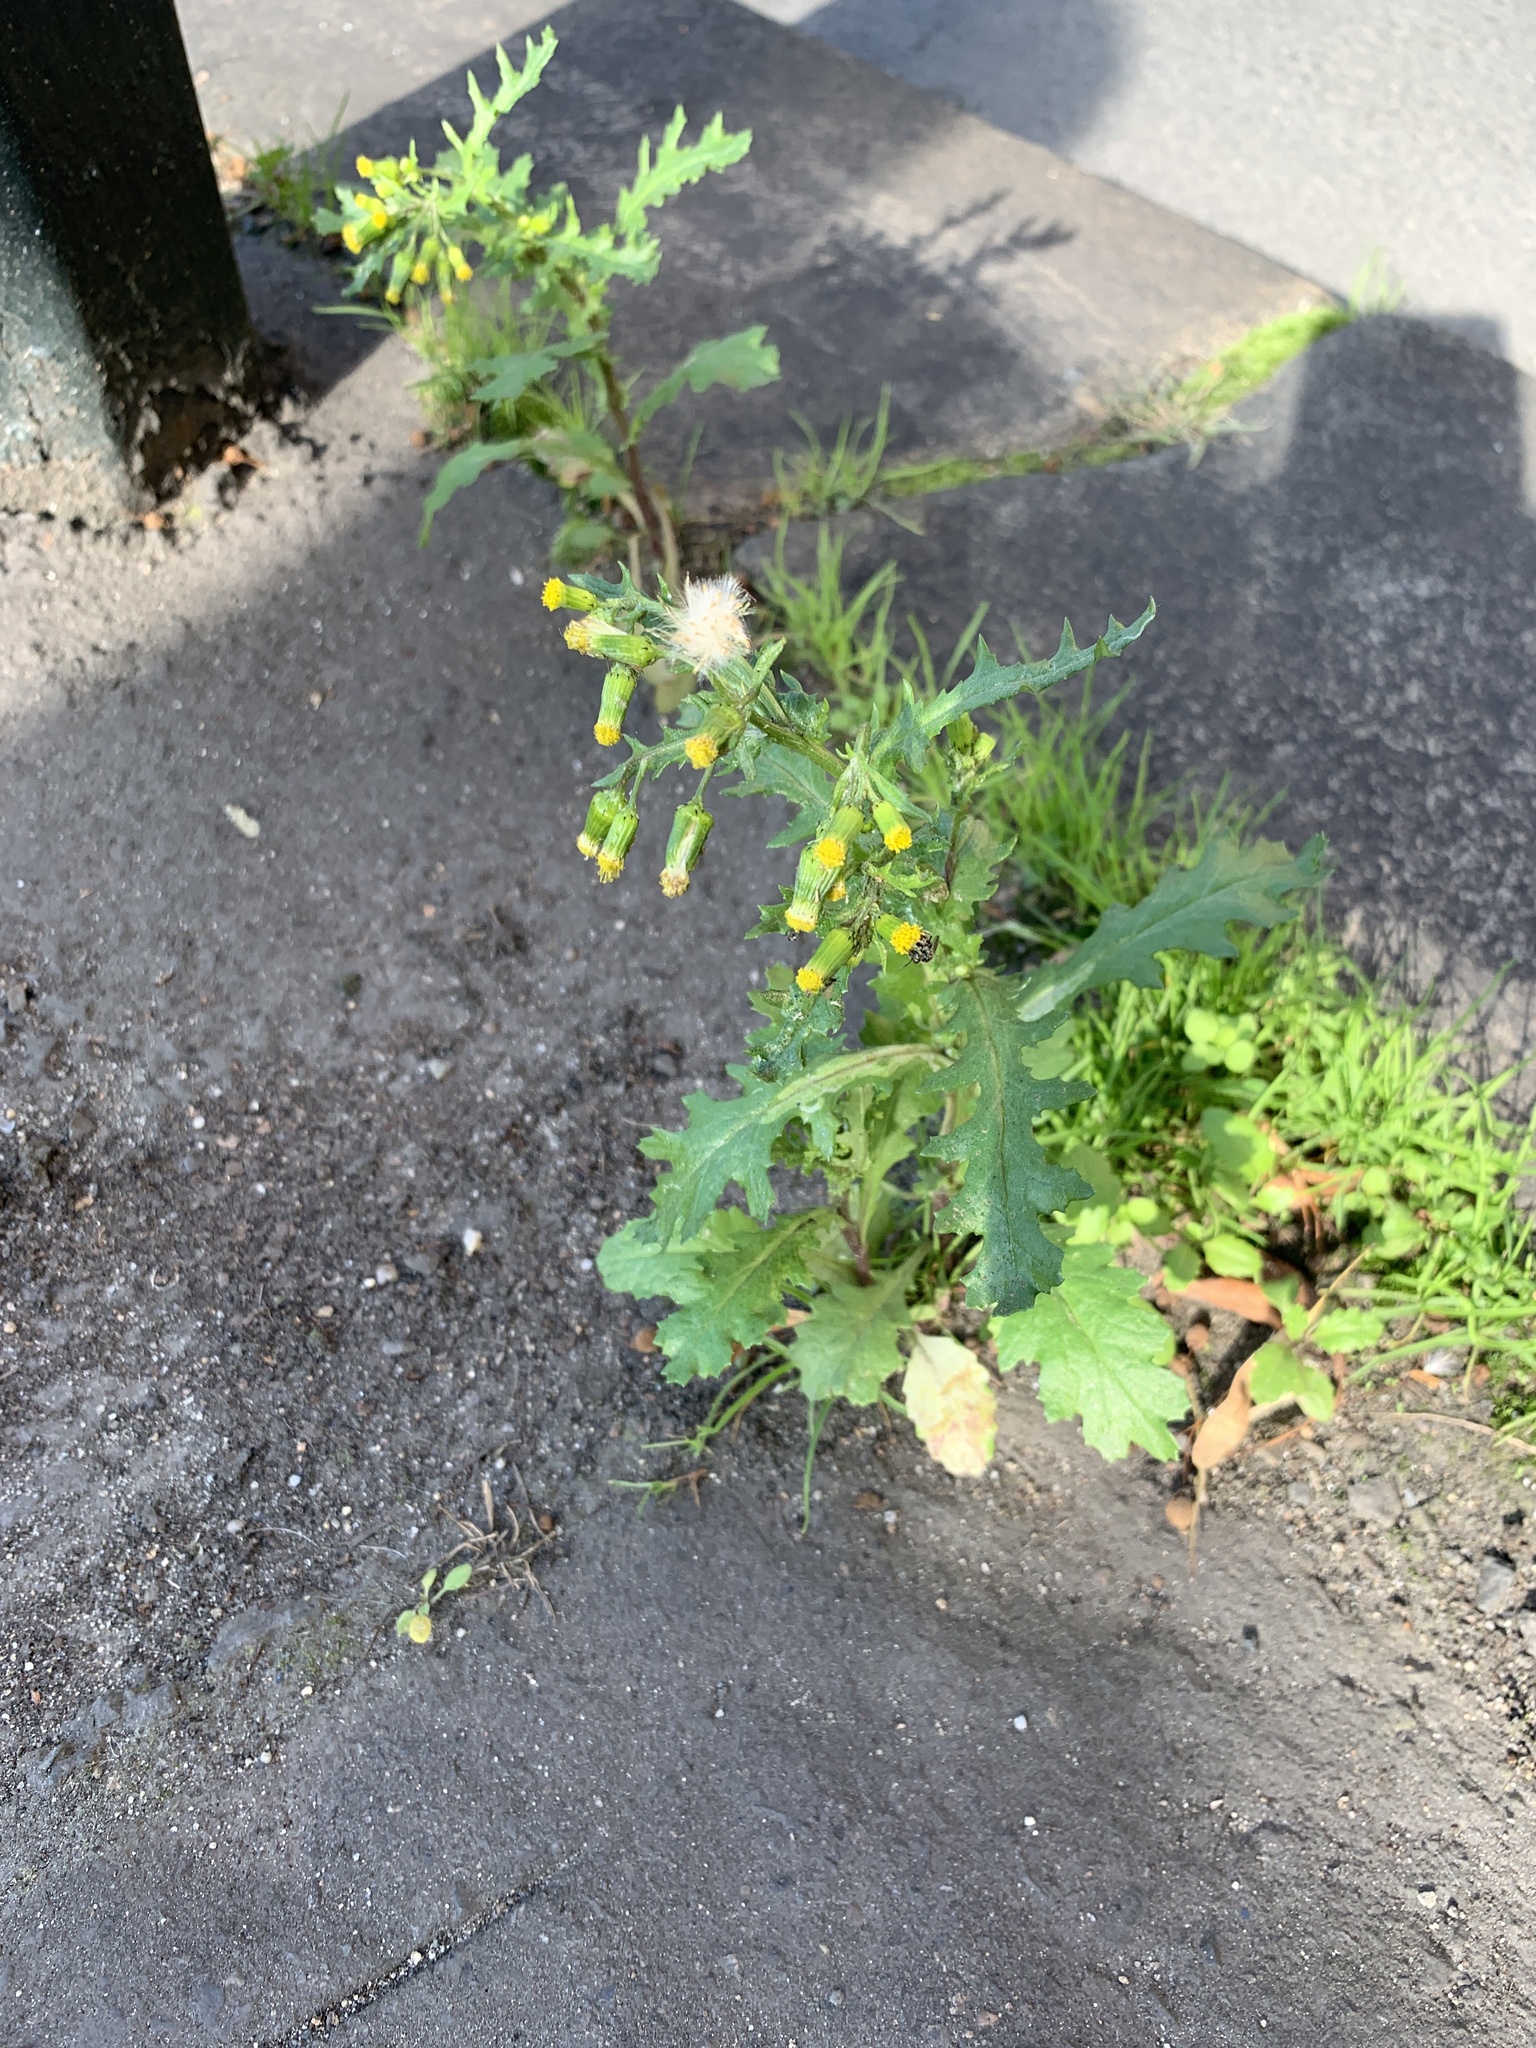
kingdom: Plantae
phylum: Tracheophyta
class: Magnoliopsida
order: Asterales
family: Asteraceae
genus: Senecio
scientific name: Senecio vulgaris
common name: Old-man-in-the-spring
